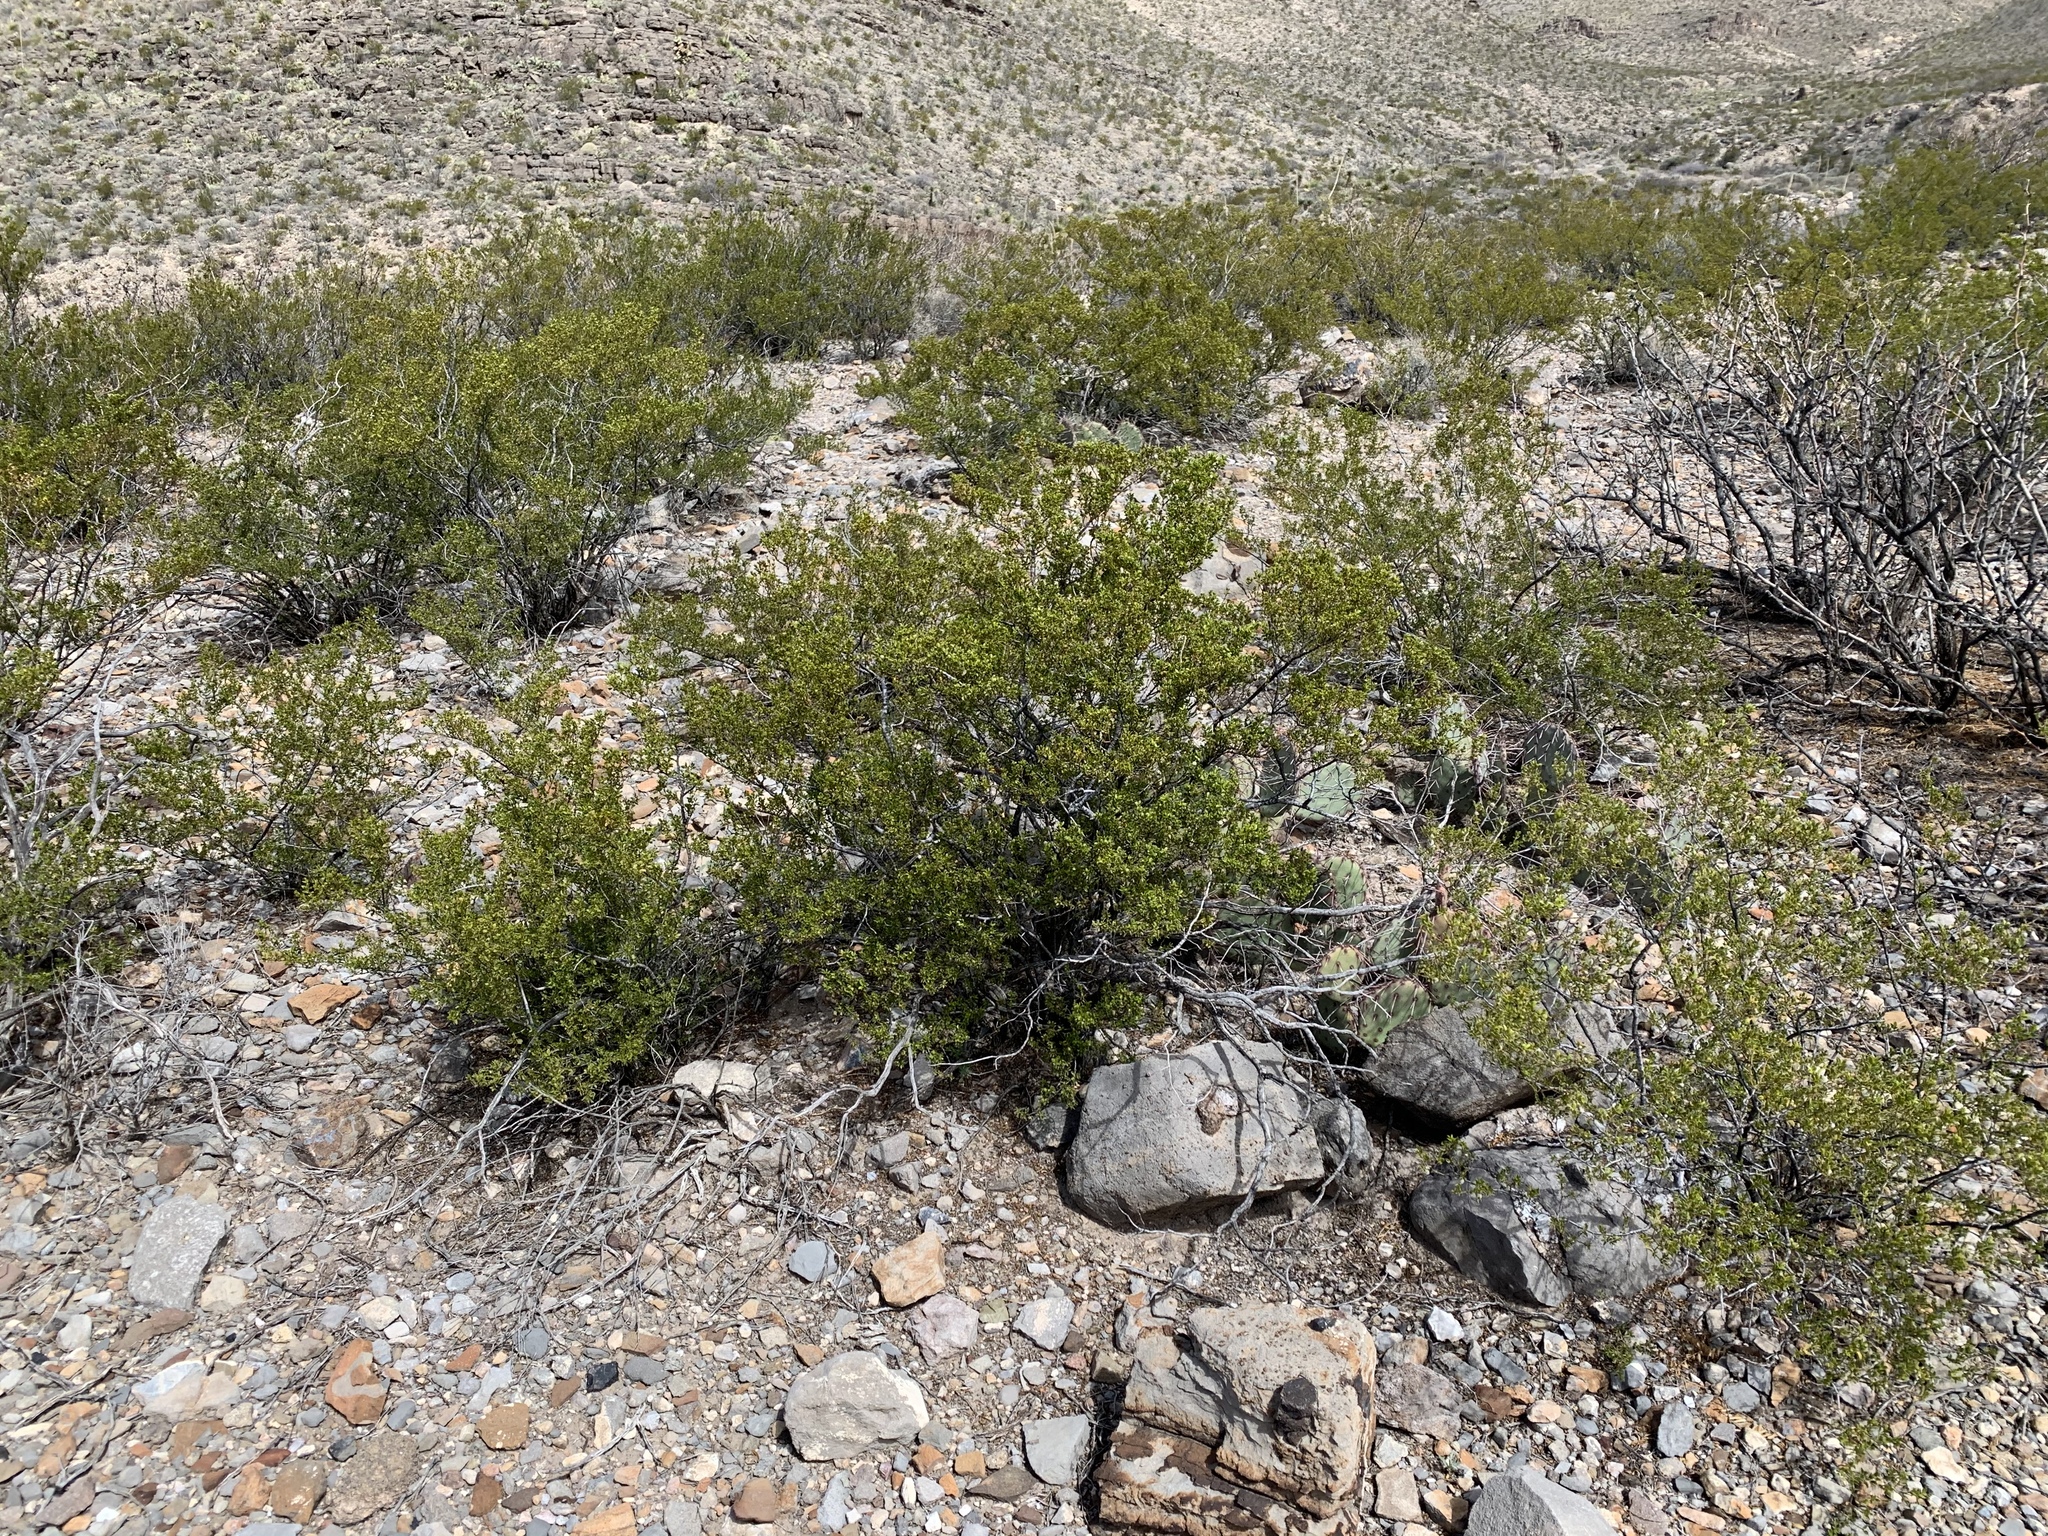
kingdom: Plantae
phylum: Tracheophyta
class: Magnoliopsida
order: Zygophyllales
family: Zygophyllaceae
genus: Larrea
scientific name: Larrea tridentata
